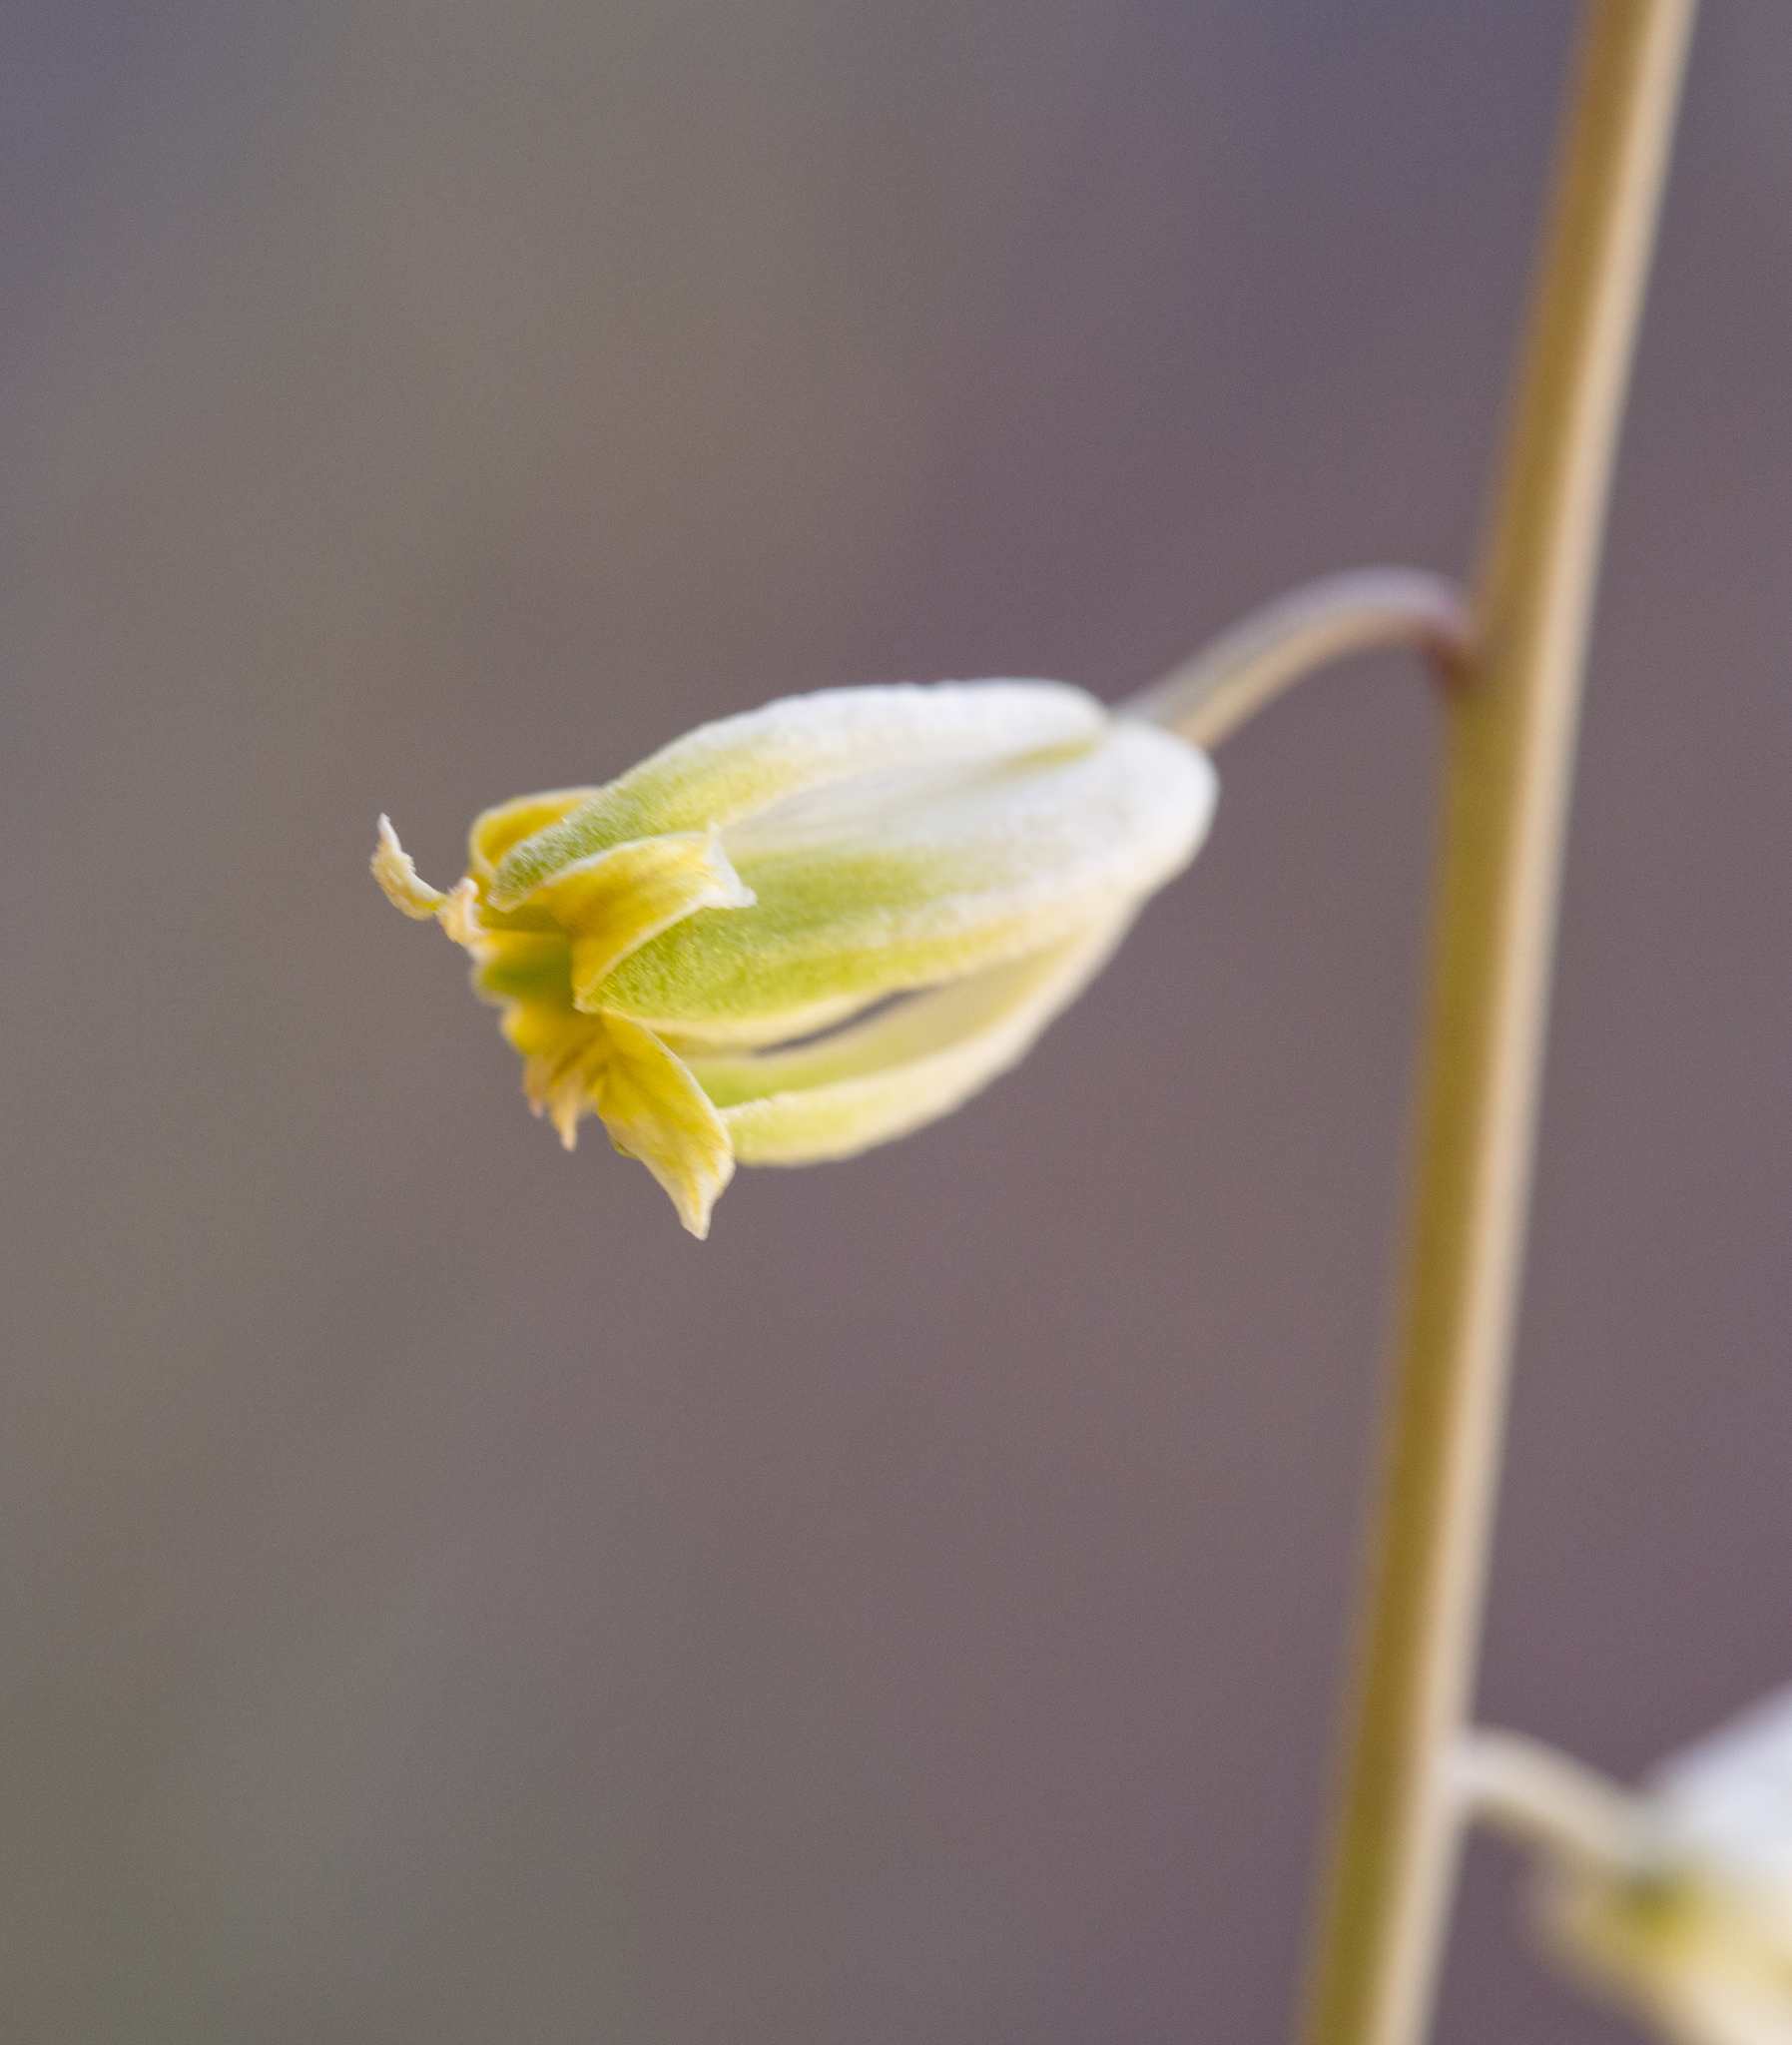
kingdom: Plantae
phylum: Tracheophyta
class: Magnoliopsida
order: Brassicales
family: Brassicaceae
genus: Streptanthus
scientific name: Streptanthus longirostris
